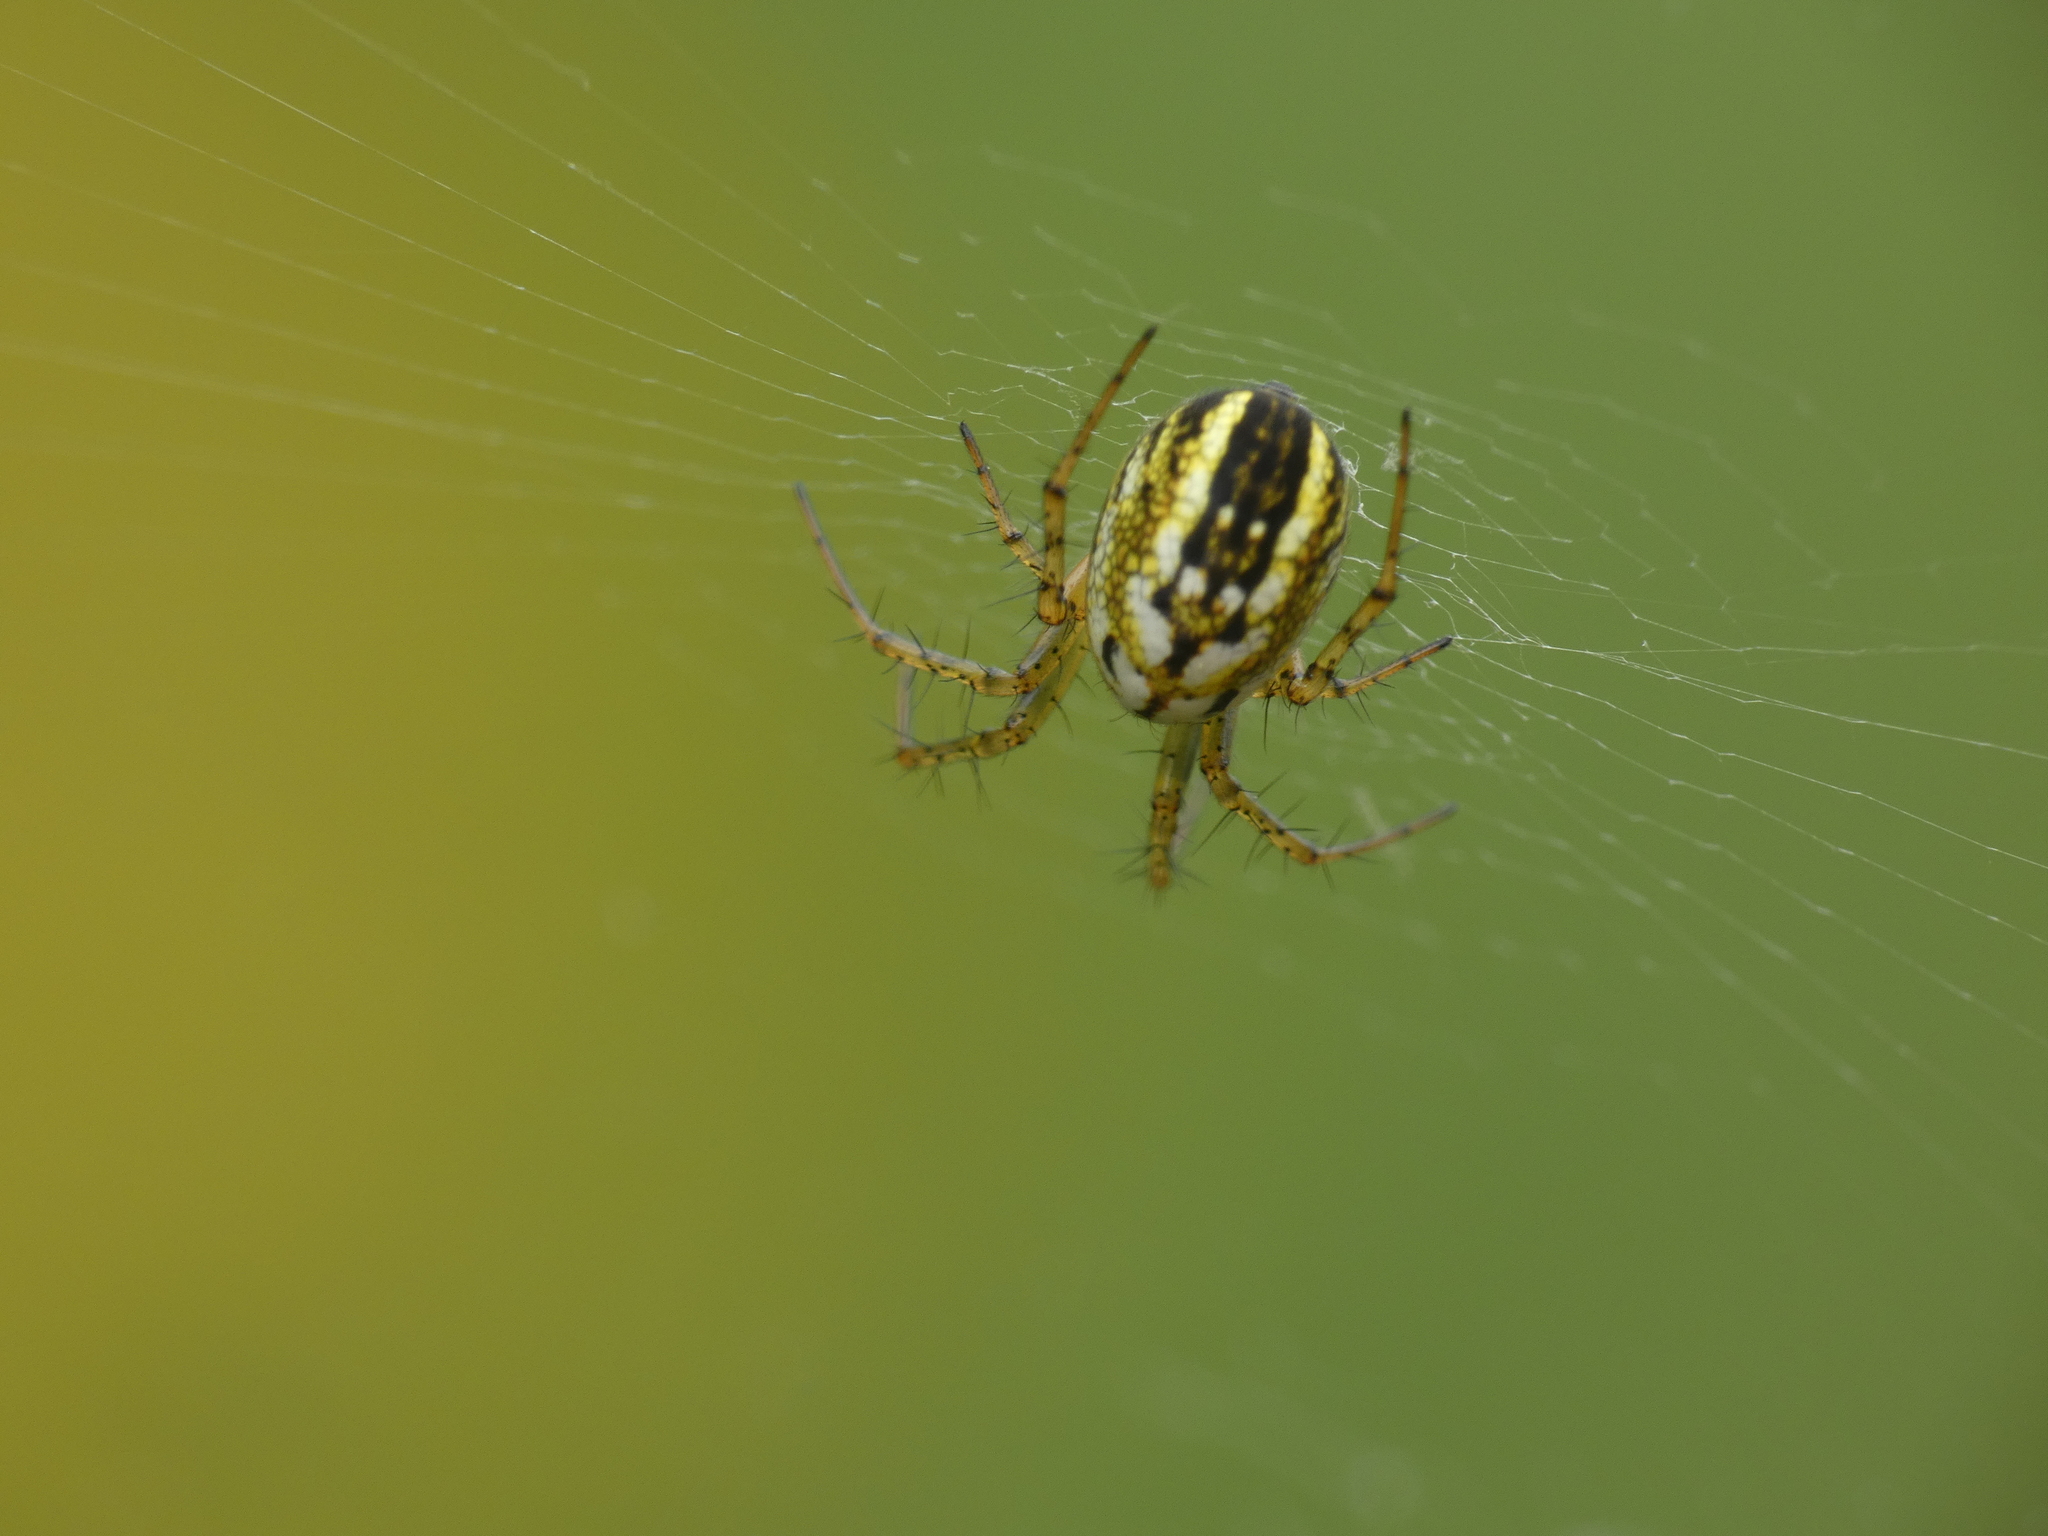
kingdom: Animalia
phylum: Arthropoda
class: Arachnida
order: Araneae
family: Araneidae
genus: Mangora
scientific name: Mangora acalypha
